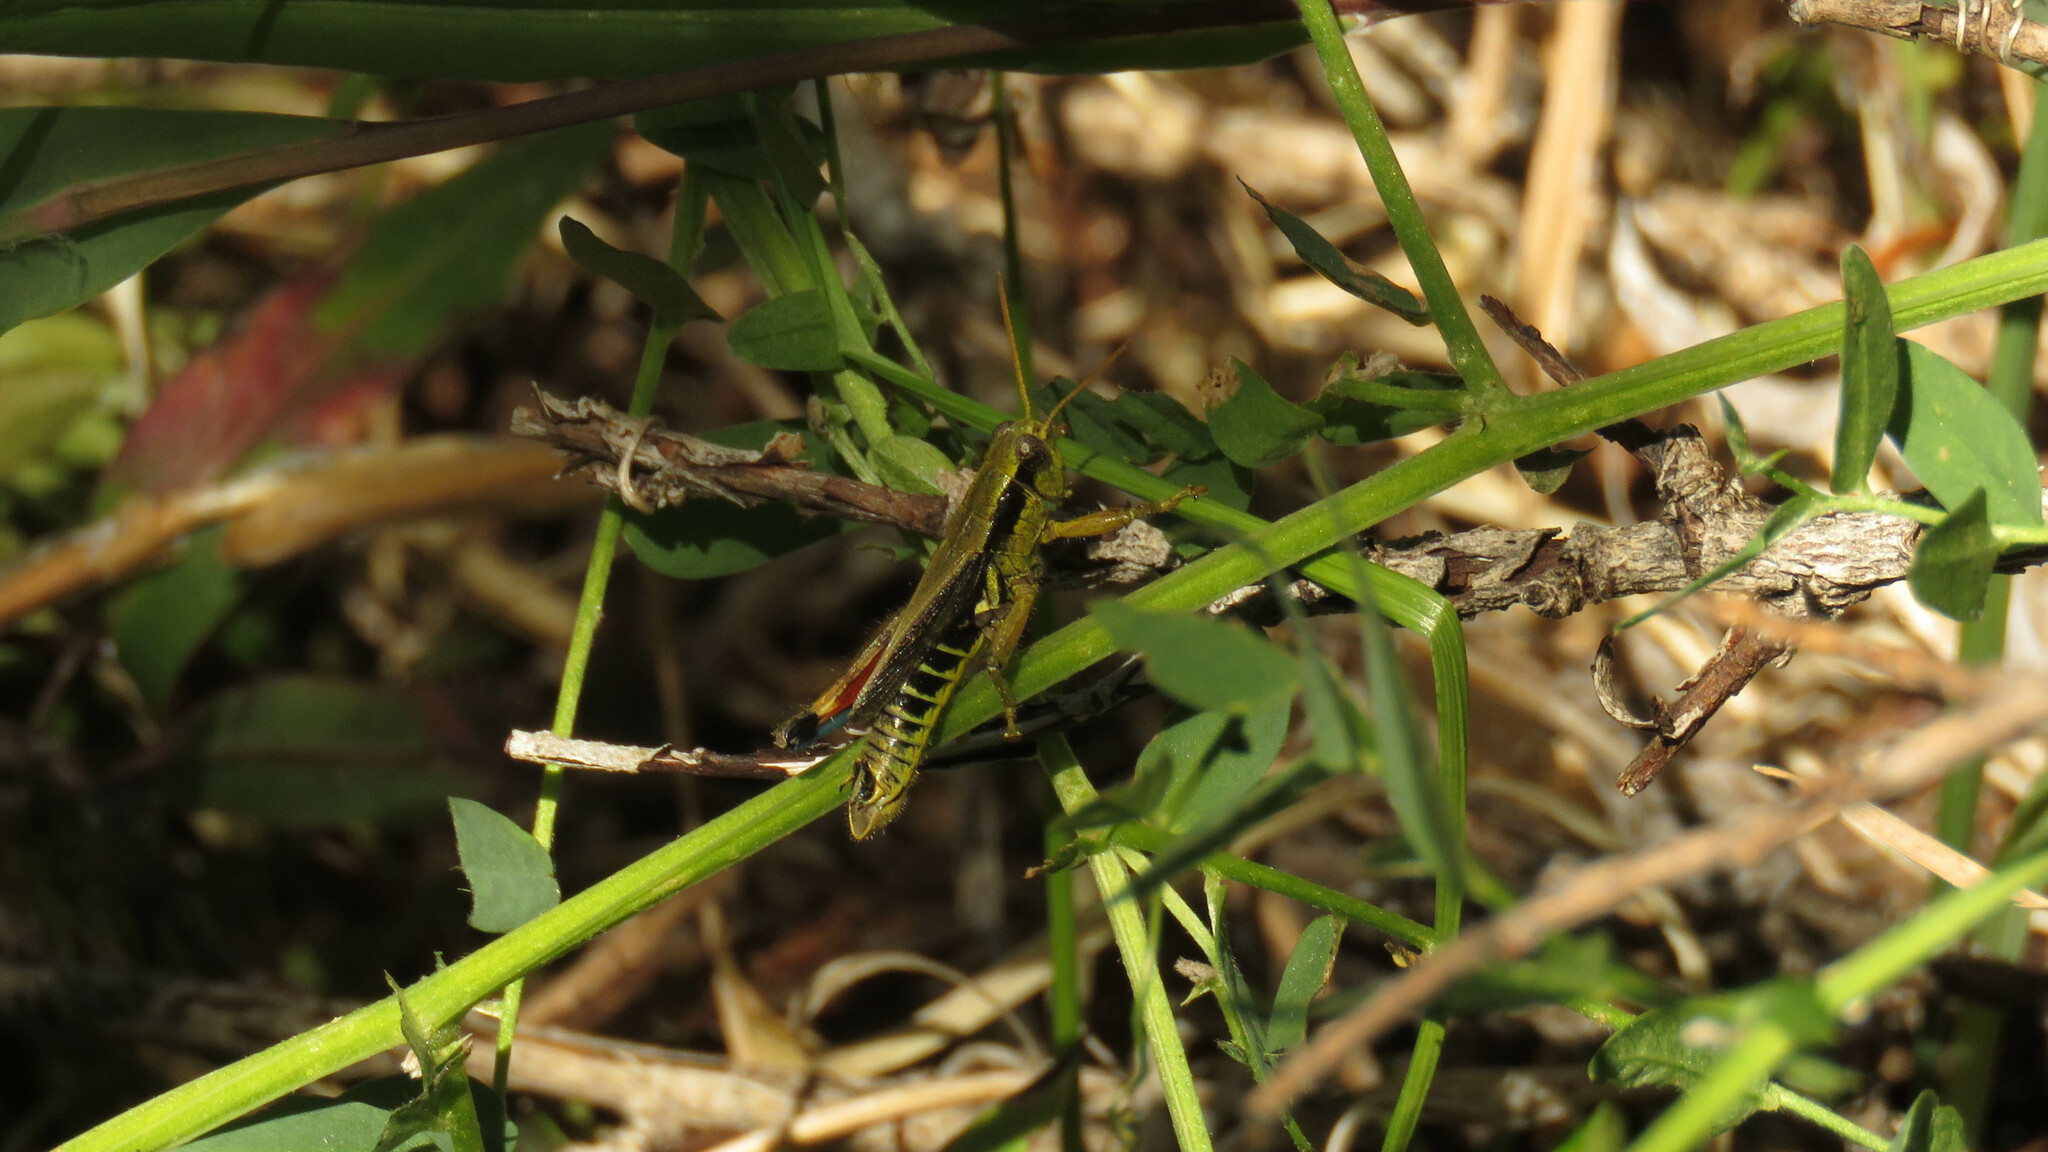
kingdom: Animalia
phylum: Arthropoda
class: Insecta
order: Orthoptera
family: Acrididae
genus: Dichroplus
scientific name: Dichroplus democraticus
